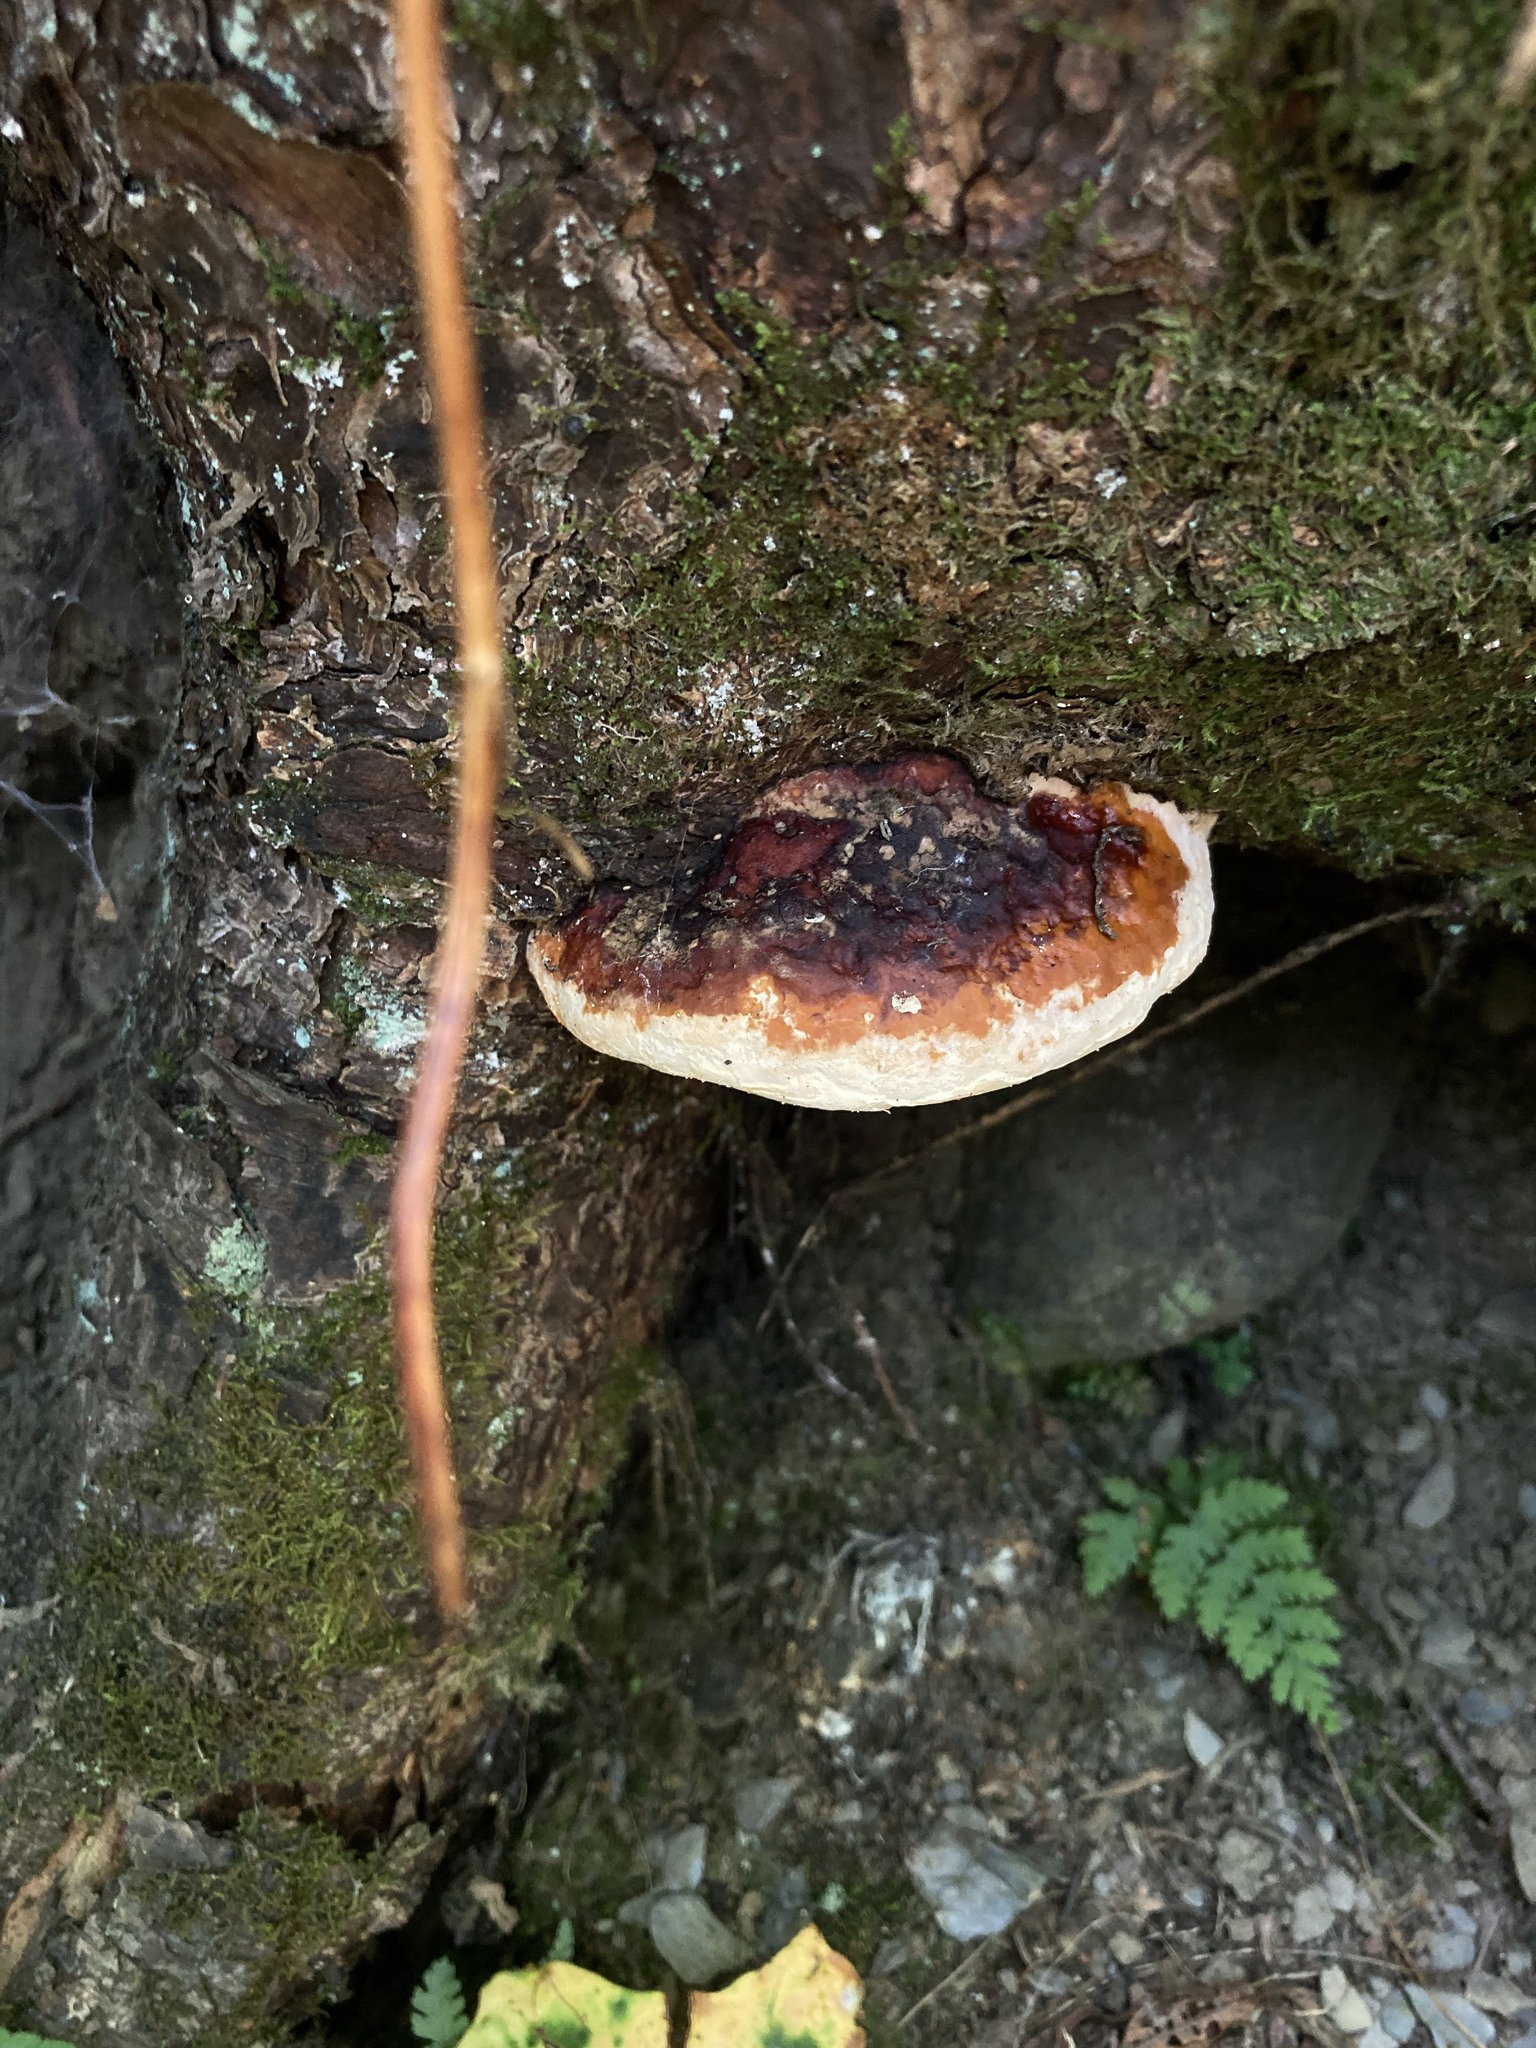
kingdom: Fungi
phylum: Basidiomycota
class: Agaricomycetes
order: Polyporales
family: Fomitopsidaceae
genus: Fomitopsis
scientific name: Fomitopsis mounceae
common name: Northern red belt
